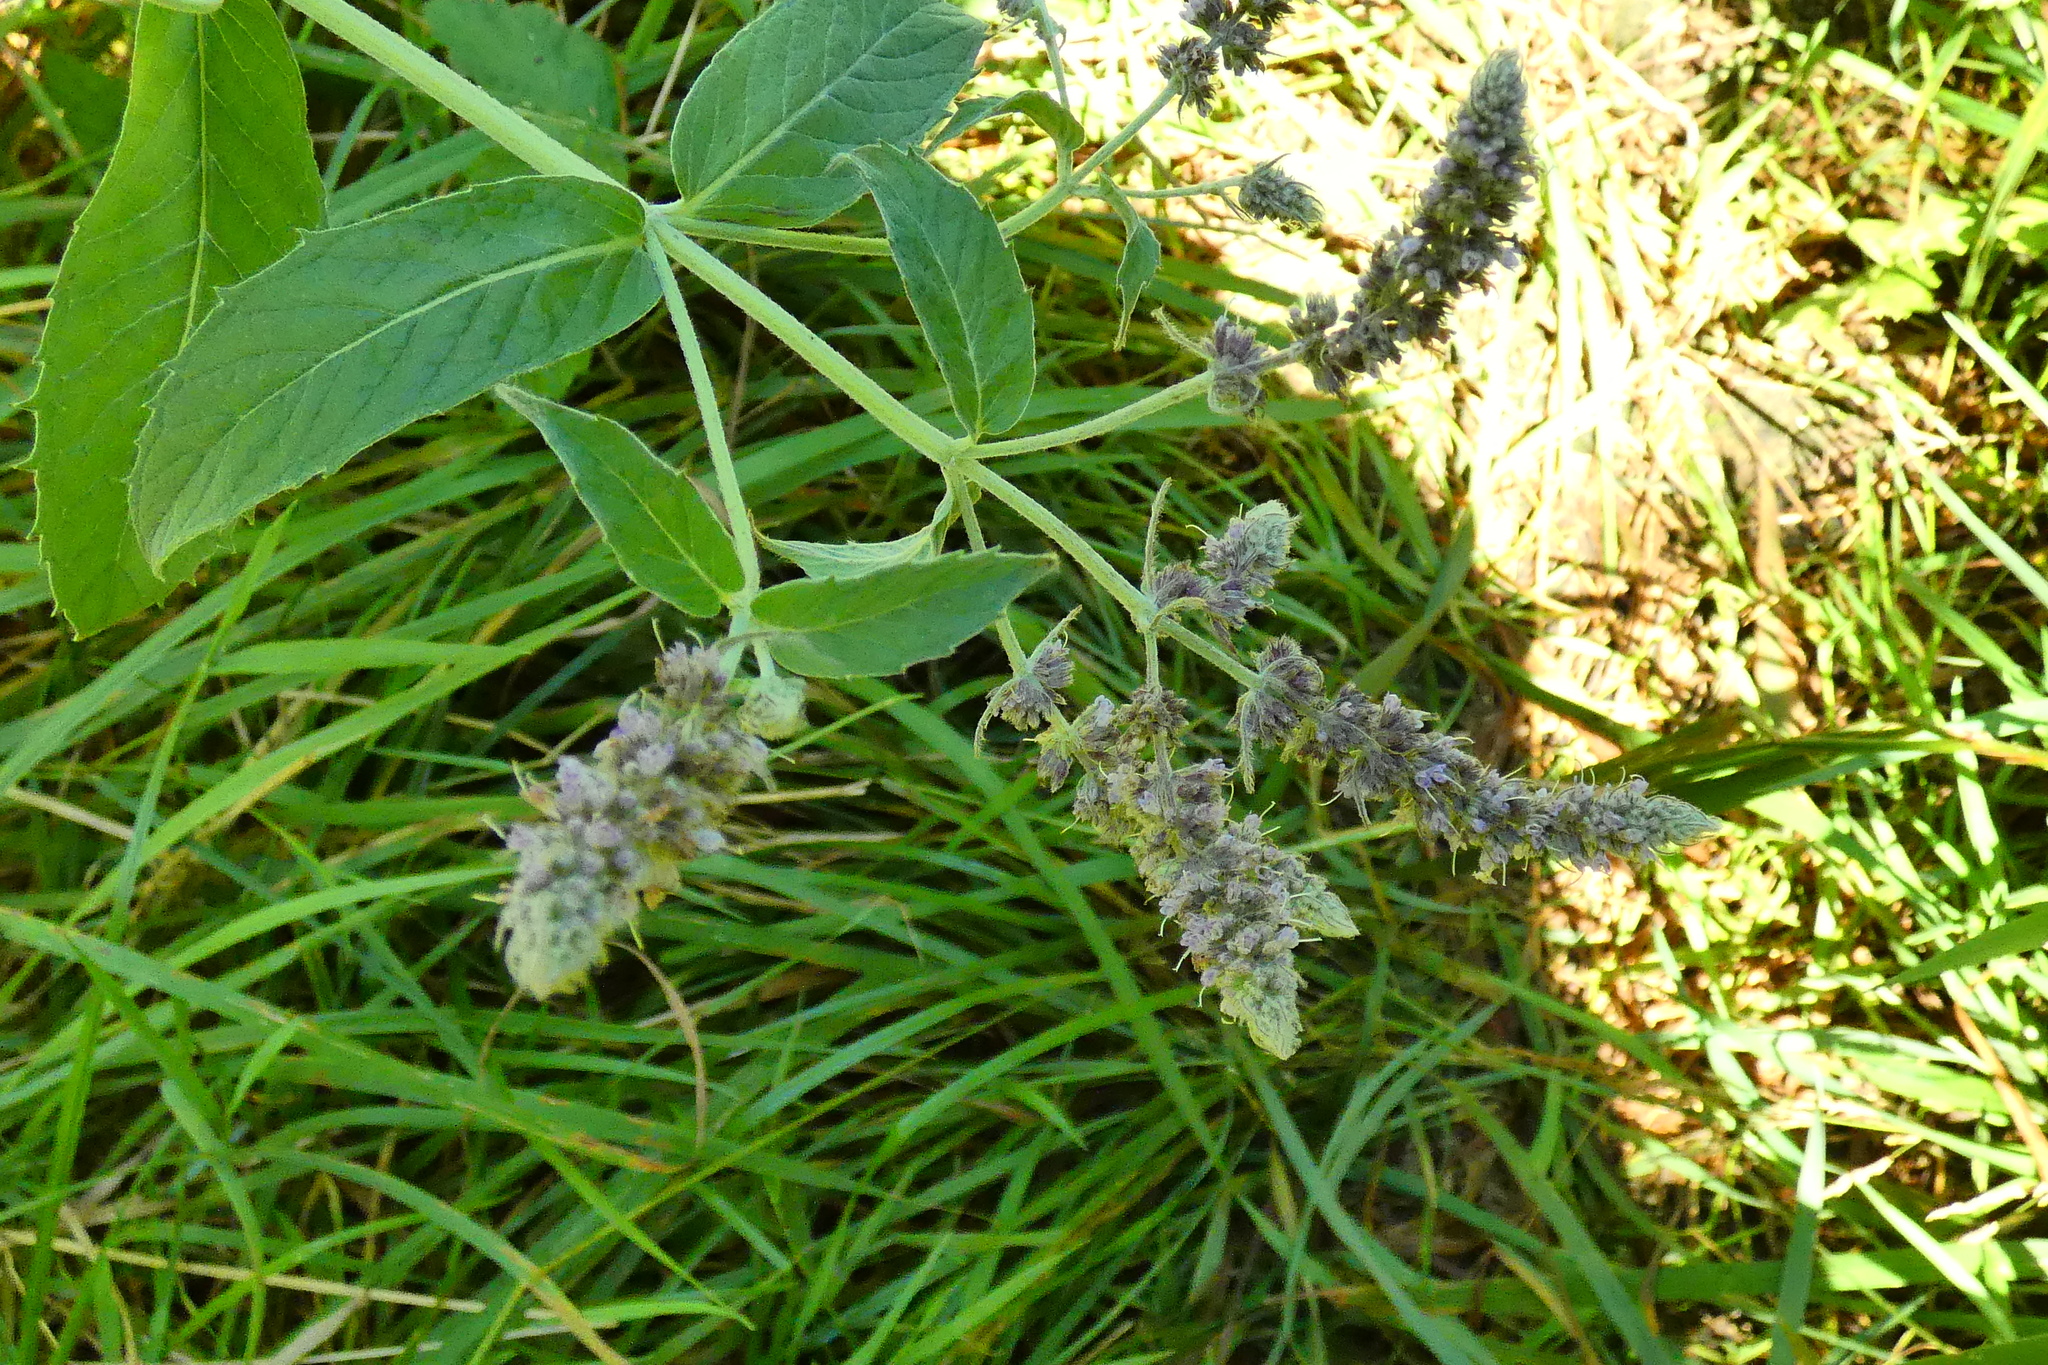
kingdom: Plantae
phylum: Tracheophyta
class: Magnoliopsida
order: Lamiales
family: Lamiaceae
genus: Mentha
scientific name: Mentha longifolia
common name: Horse mint
